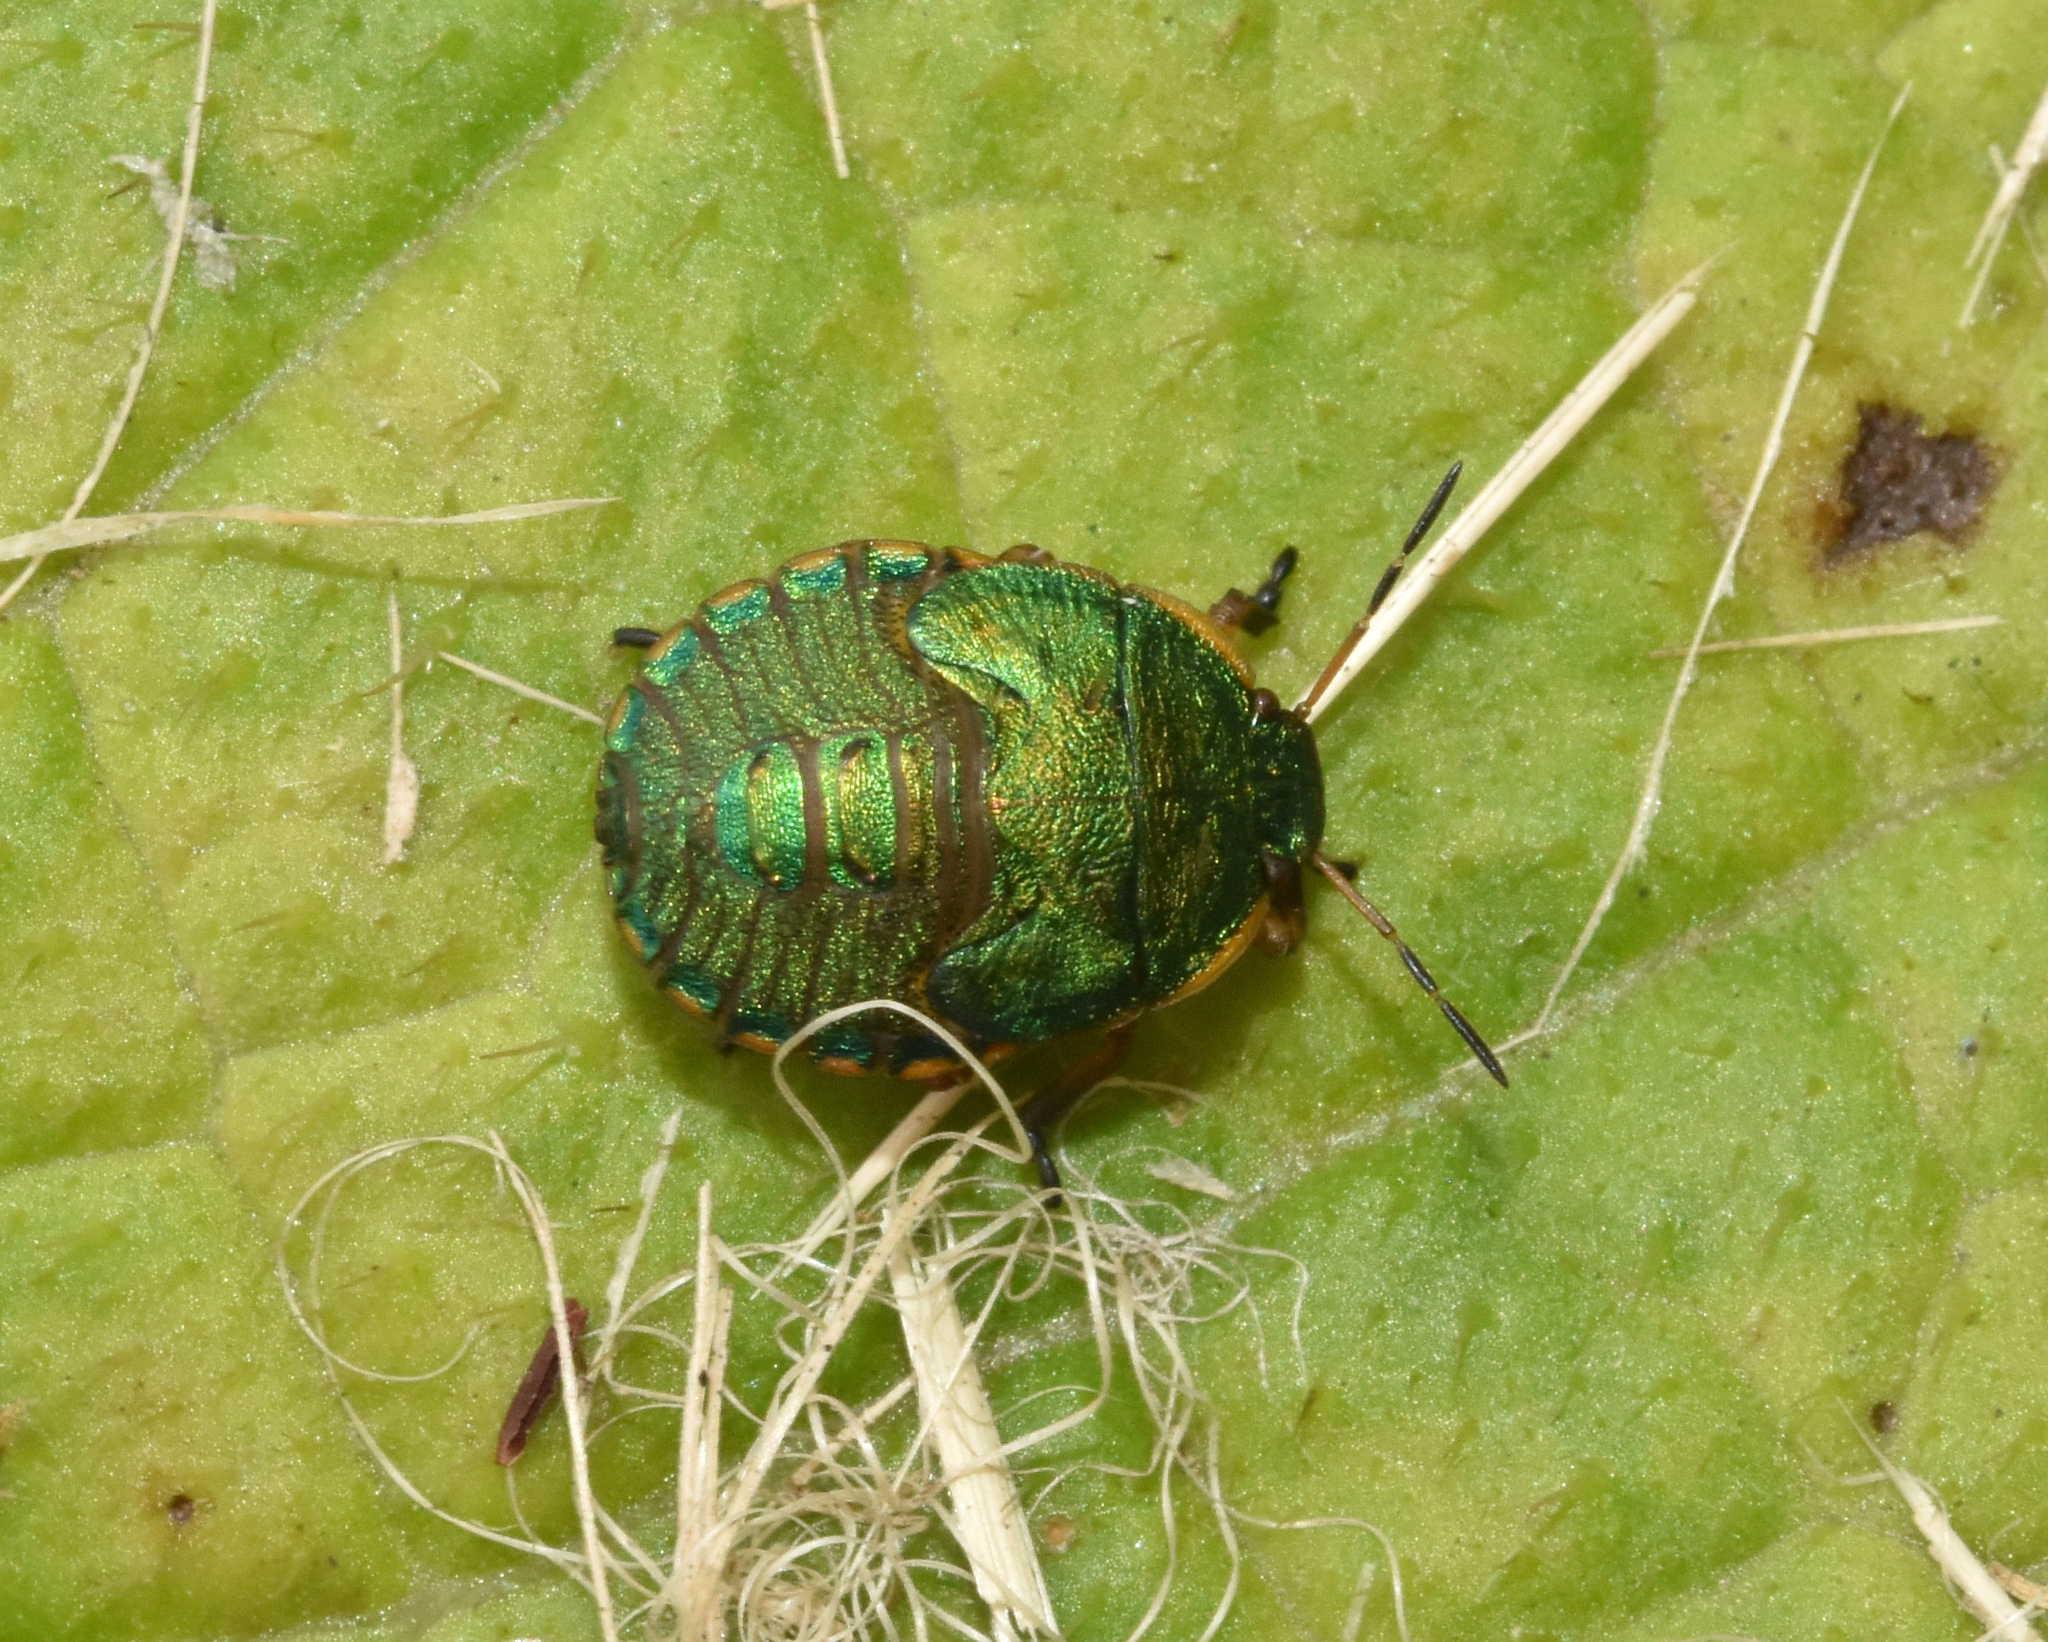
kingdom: Animalia
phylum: Arthropoda
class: Insecta
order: Hemiptera
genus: Erachtheus
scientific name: Erachtheus
